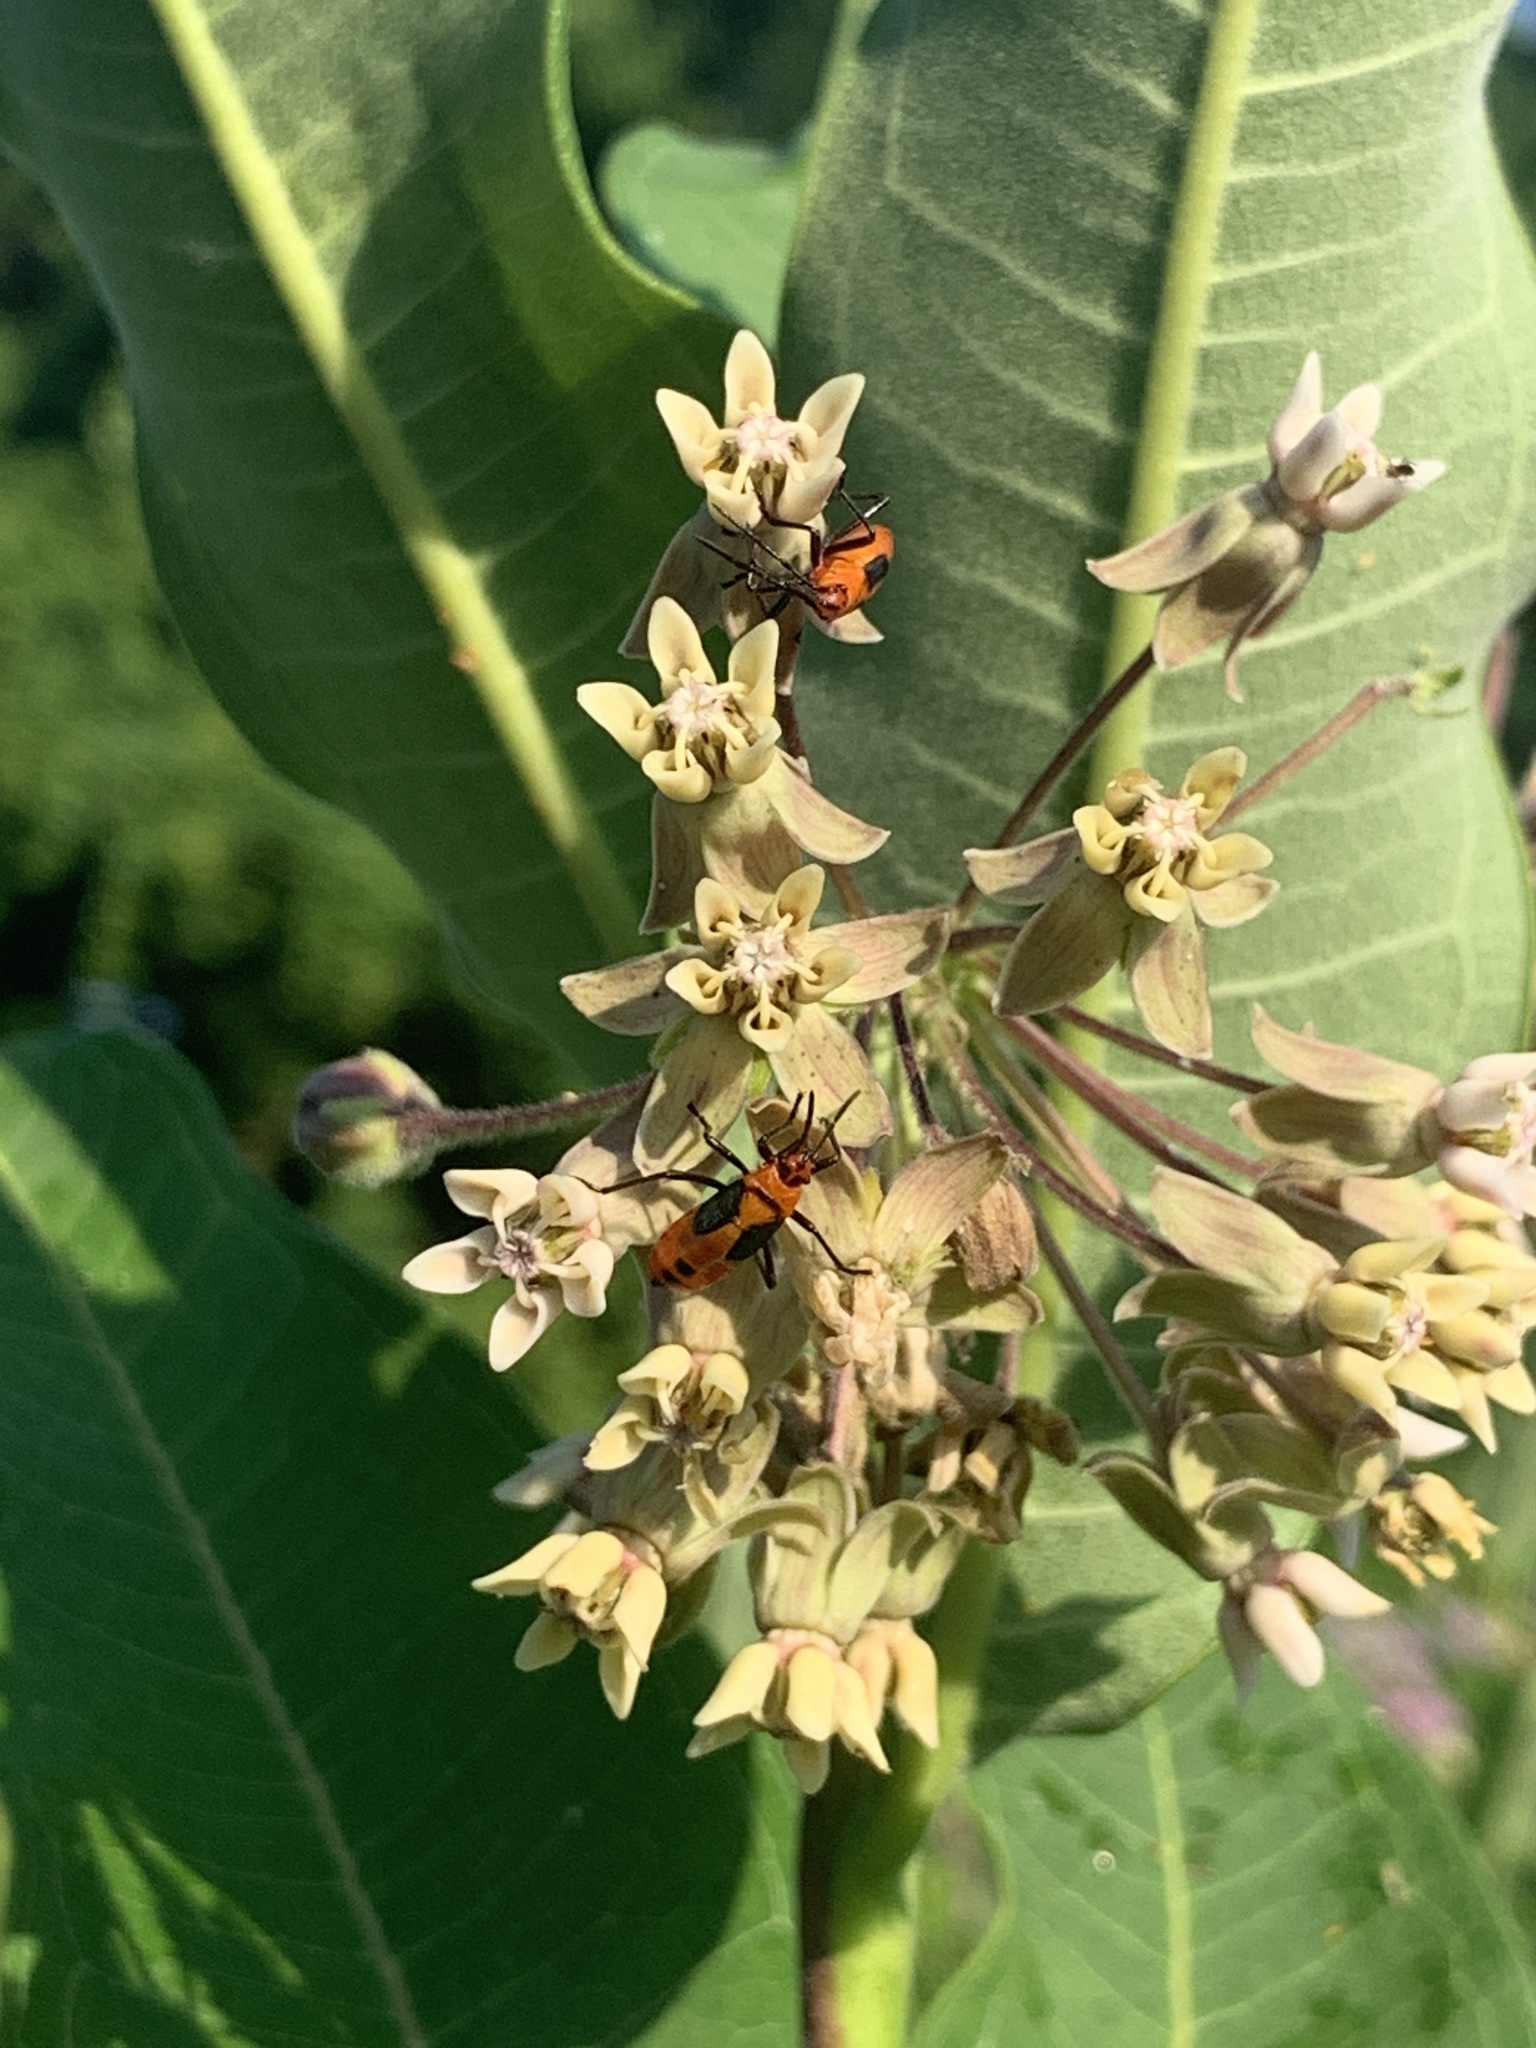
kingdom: Animalia
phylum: Arthropoda
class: Insecta
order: Hemiptera
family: Lygaeidae
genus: Oncopeltus
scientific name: Oncopeltus fasciatus
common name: Large milkweed bug
